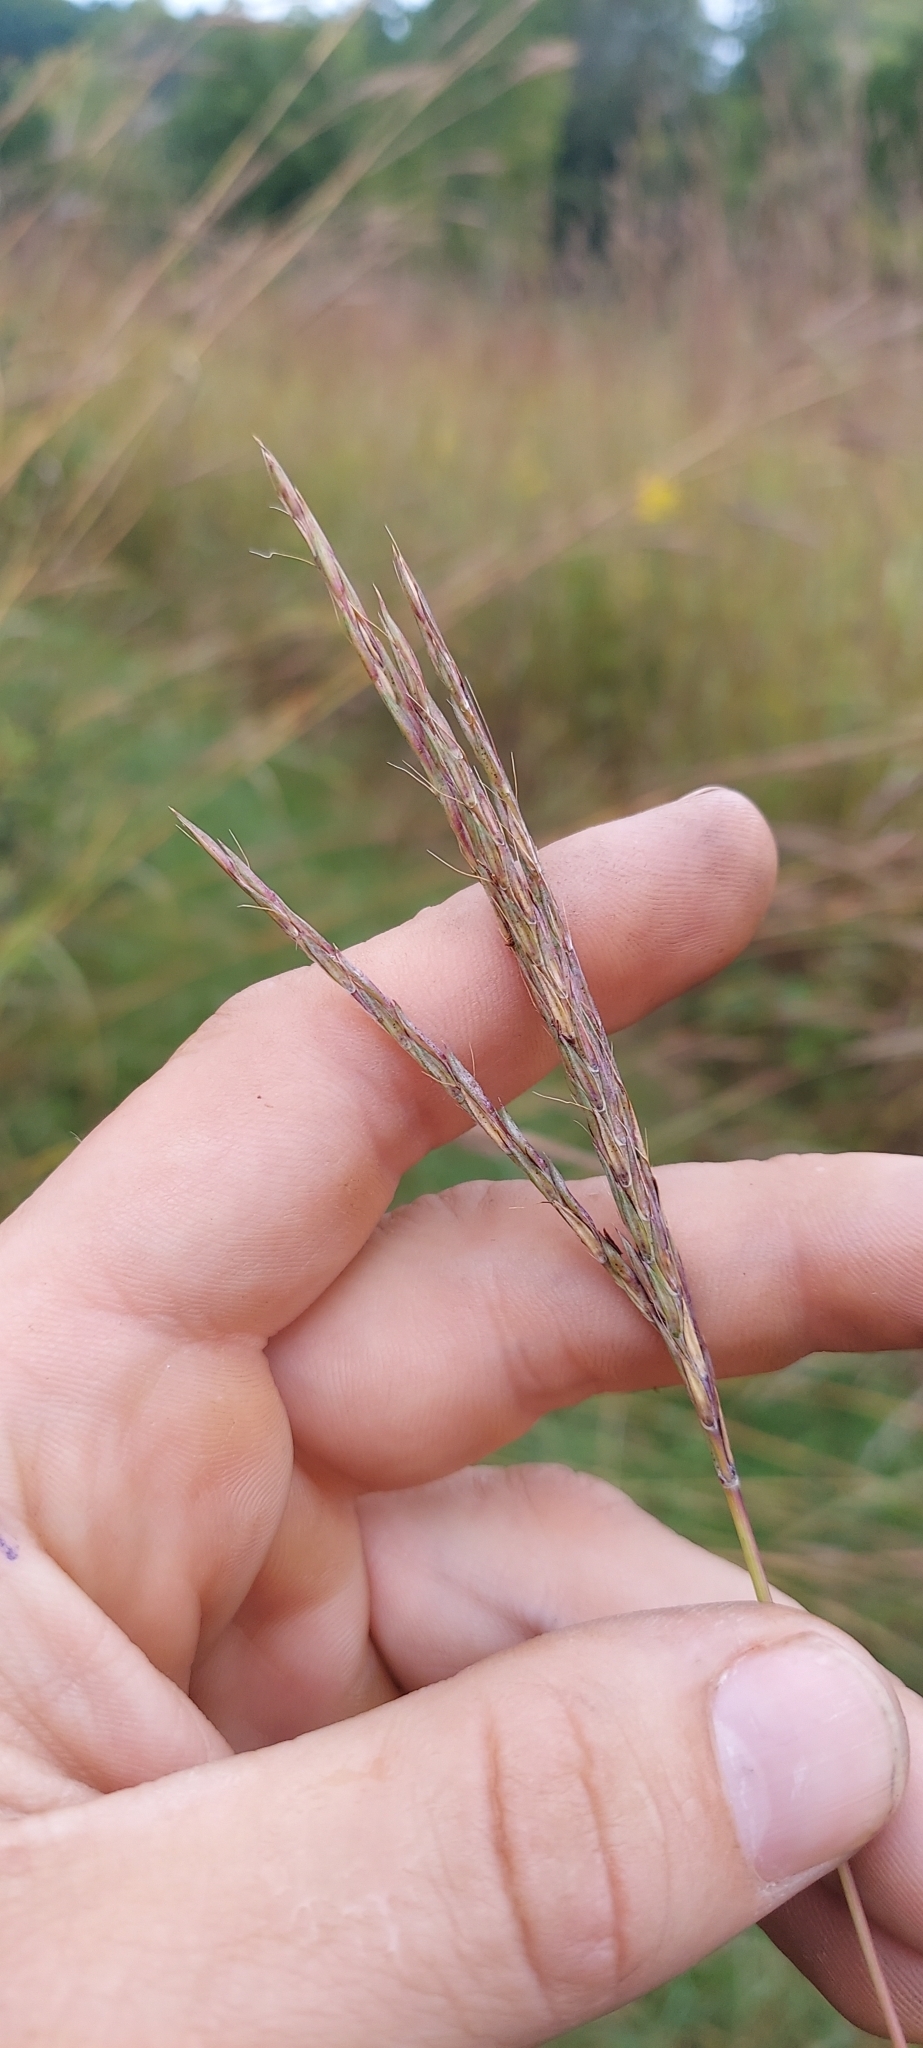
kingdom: Plantae
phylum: Tracheophyta
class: Liliopsida
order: Poales
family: Poaceae
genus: Andropogon
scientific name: Andropogon gerardi
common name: Big bluestem
